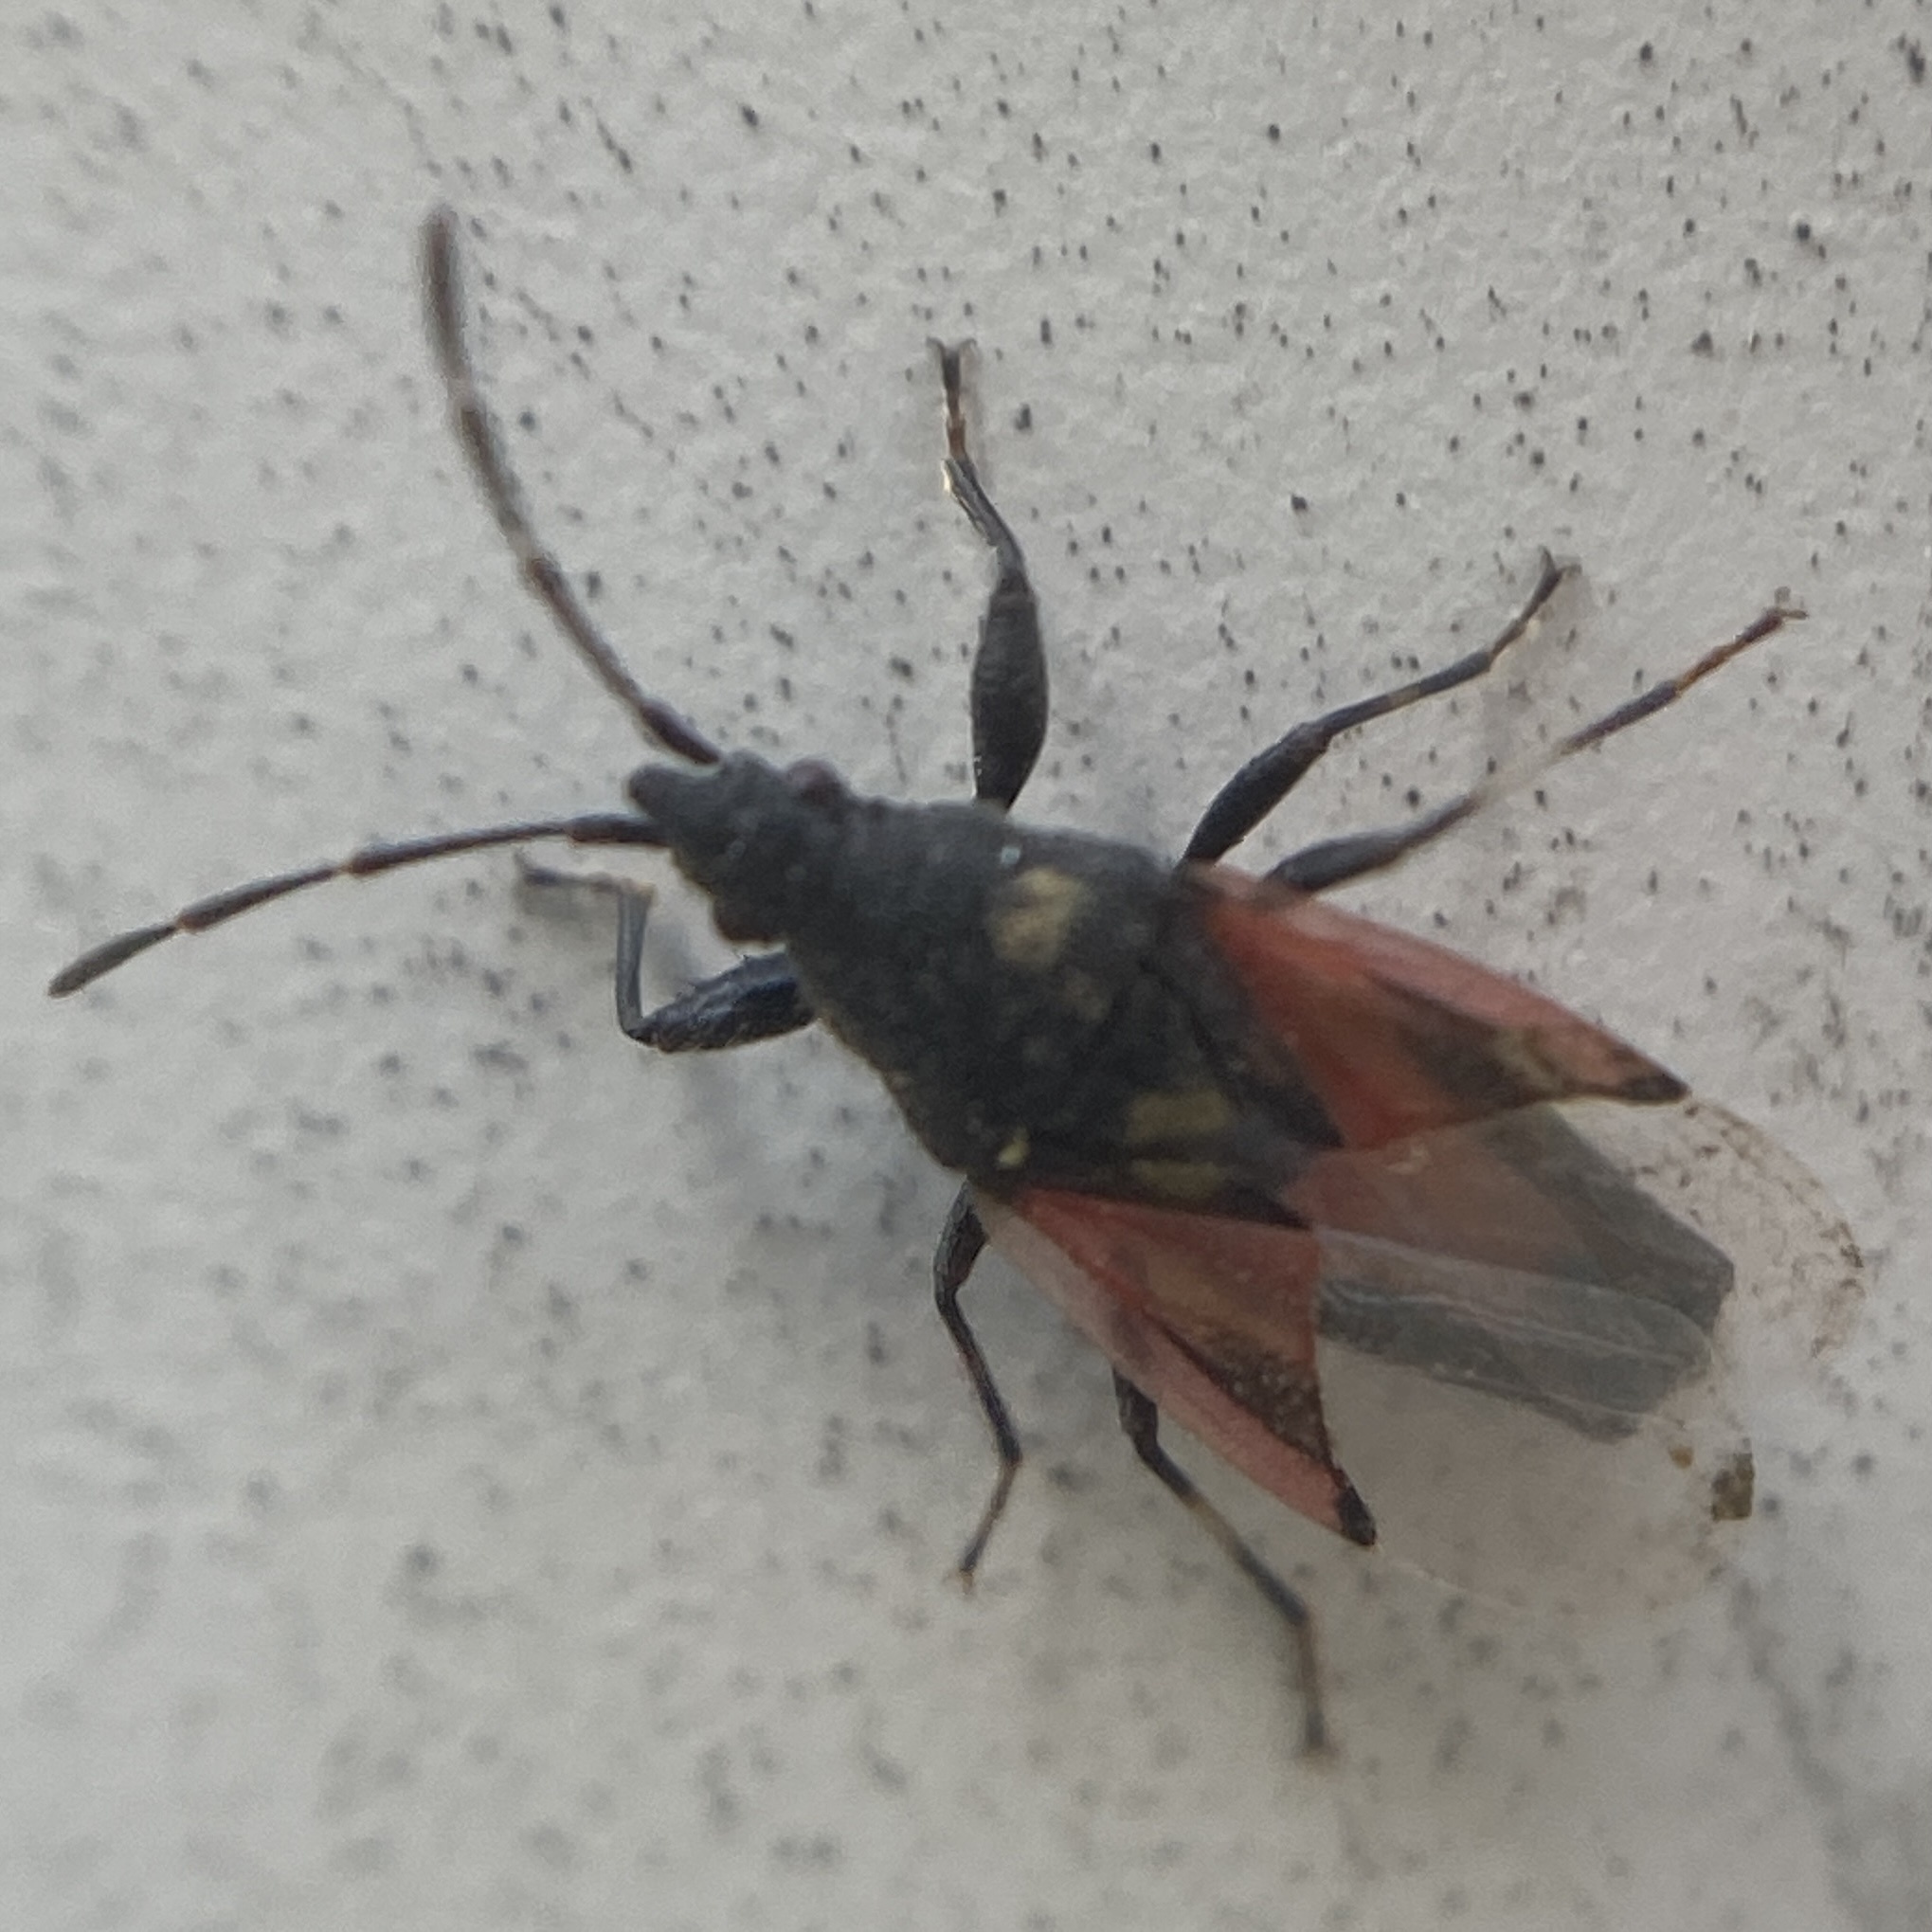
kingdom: Animalia
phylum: Arthropoda
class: Insecta
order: Hemiptera
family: Oxycarenidae
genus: Oxycarenus
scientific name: Oxycarenus lavaterae
